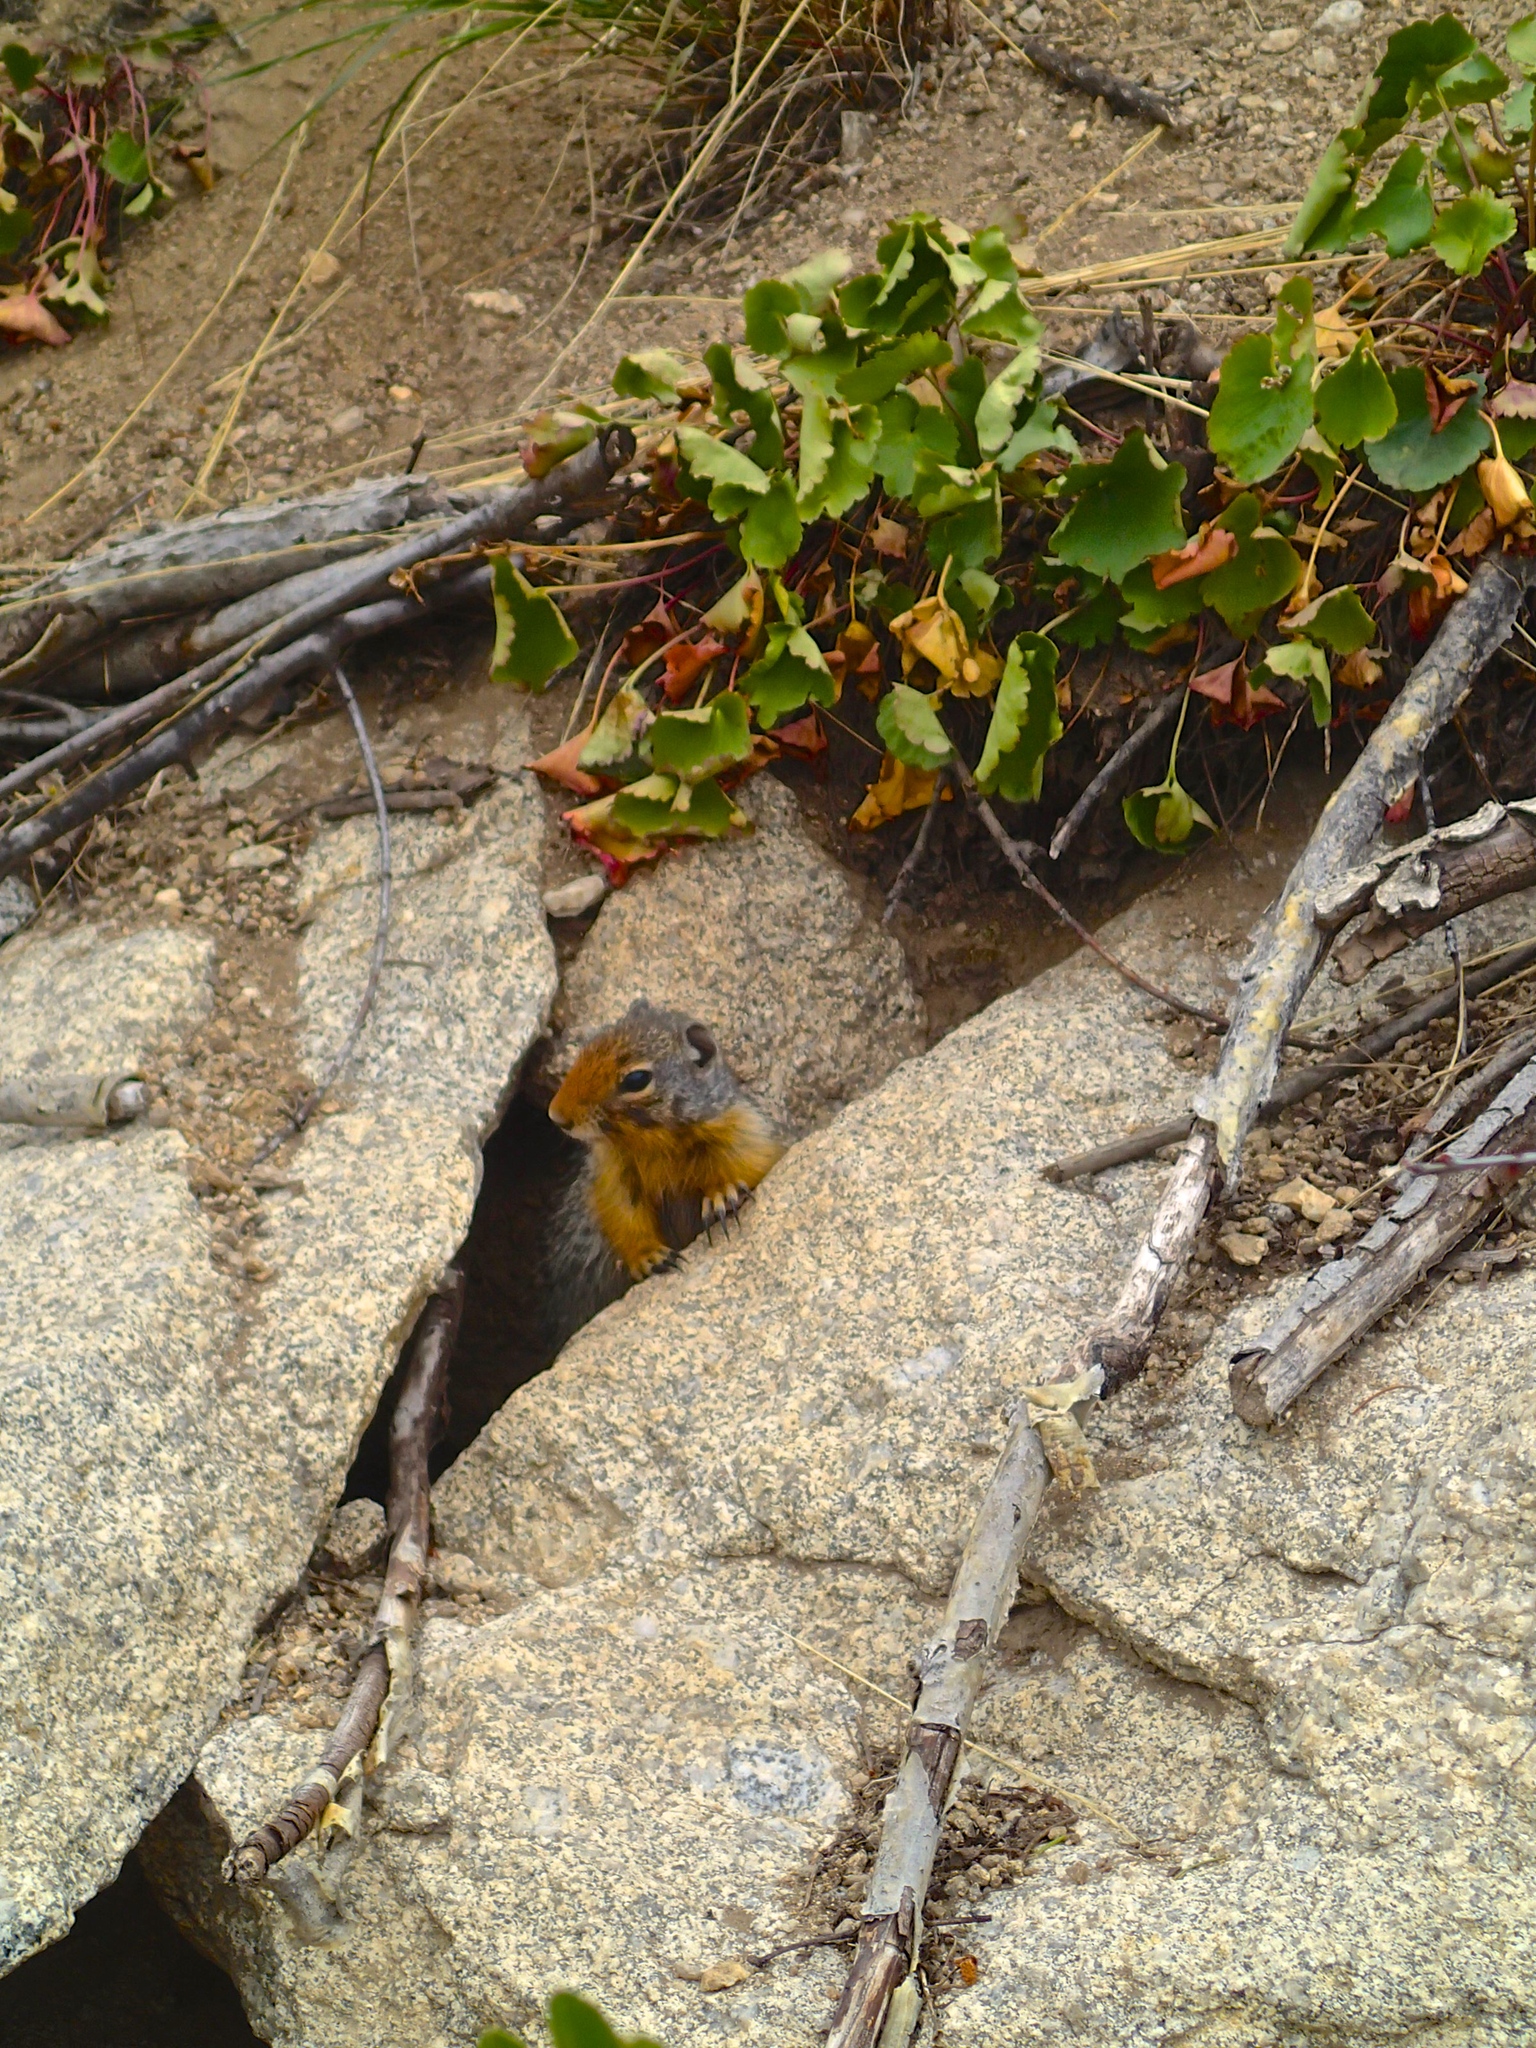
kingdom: Animalia
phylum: Chordata
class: Mammalia
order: Rodentia
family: Sciuridae
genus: Urocitellus
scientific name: Urocitellus columbianus
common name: Columbian ground squirrel
